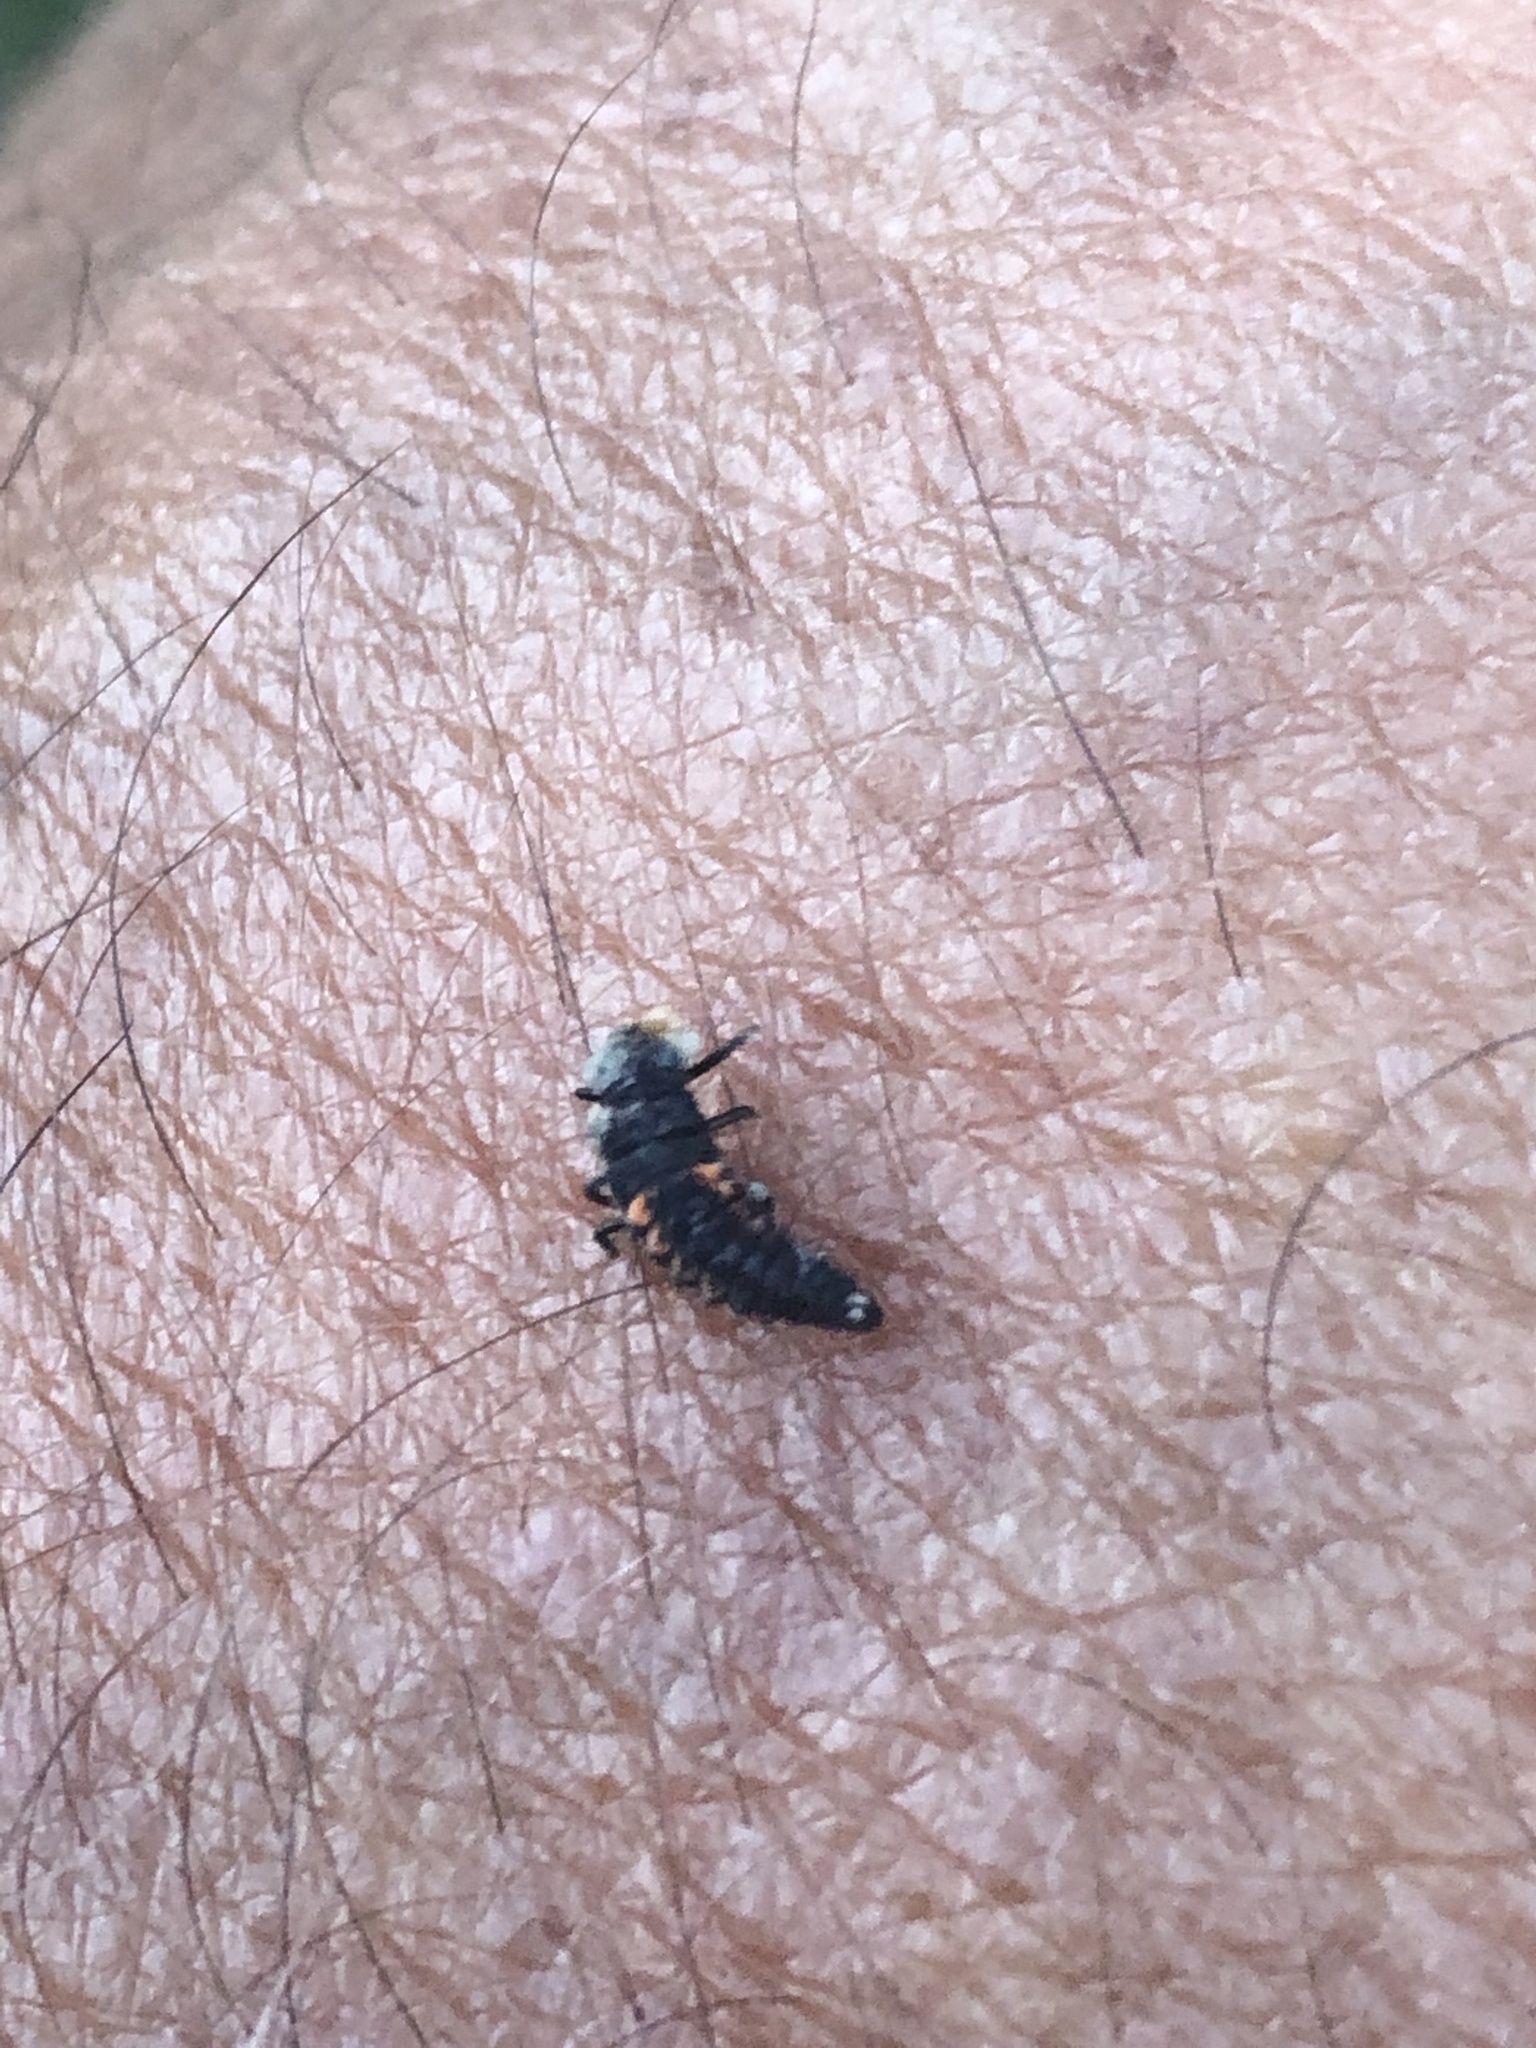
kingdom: Animalia
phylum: Arthropoda
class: Insecta
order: Coleoptera
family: Coccinellidae
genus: Harmonia
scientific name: Harmonia axyridis
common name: Harlequin ladybird
